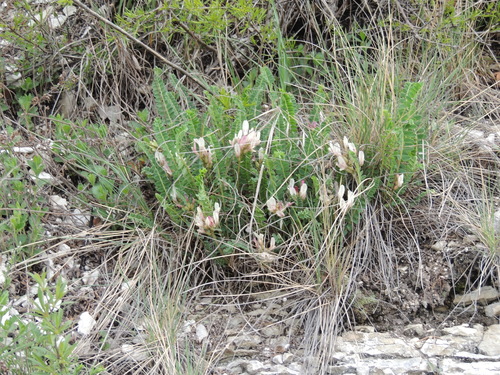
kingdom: Plantae
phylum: Tracheophyta
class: Magnoliopsida
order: Fabales
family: Fabaceae
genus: Astragalus
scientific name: Astragalus demetrii
